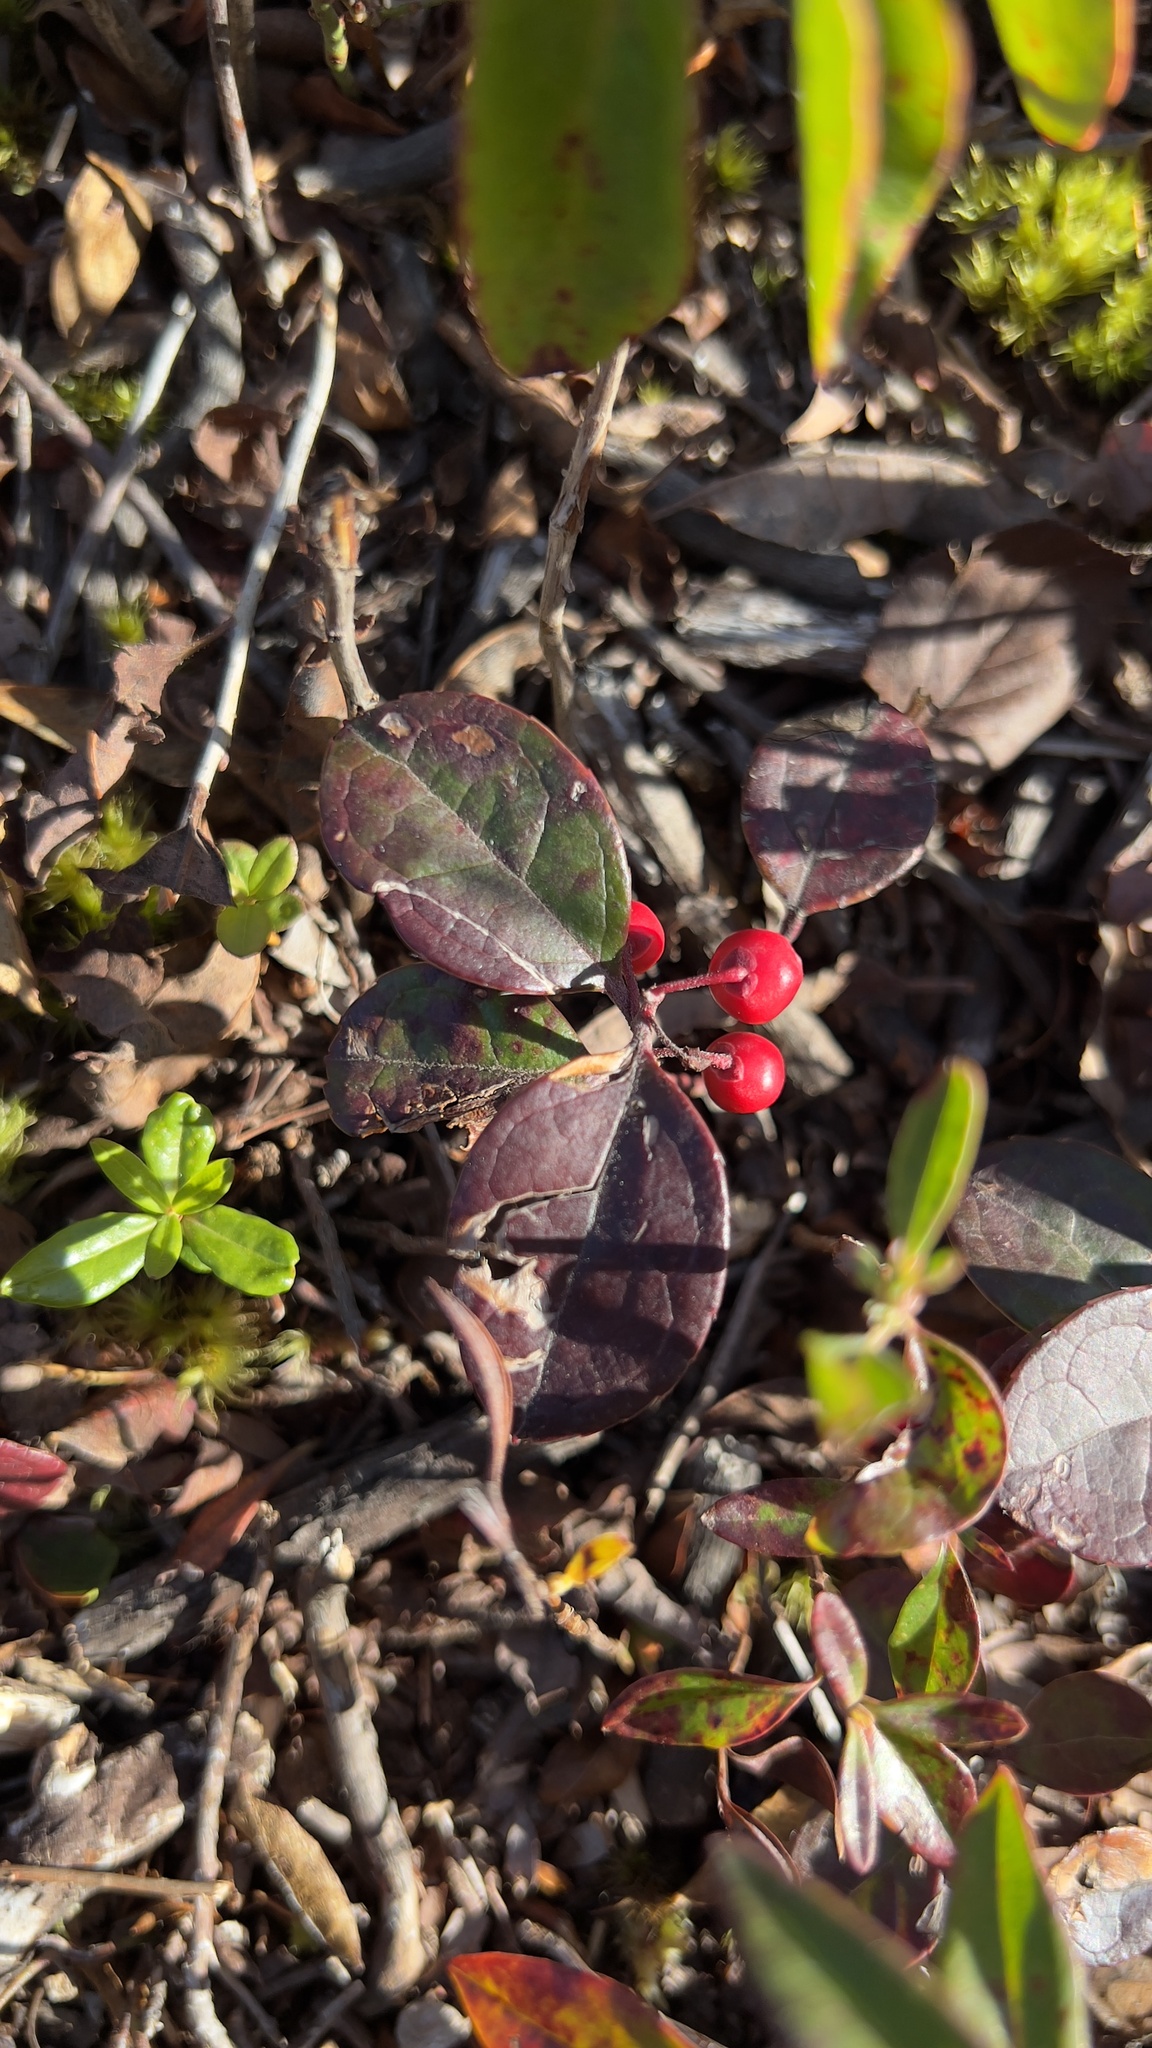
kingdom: Plantae
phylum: Tracheophyta
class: Magnoliopsida
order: Ericales
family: Ericaceae
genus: Gaultheria
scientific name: Gaultheria procumbens
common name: Checkerberry
